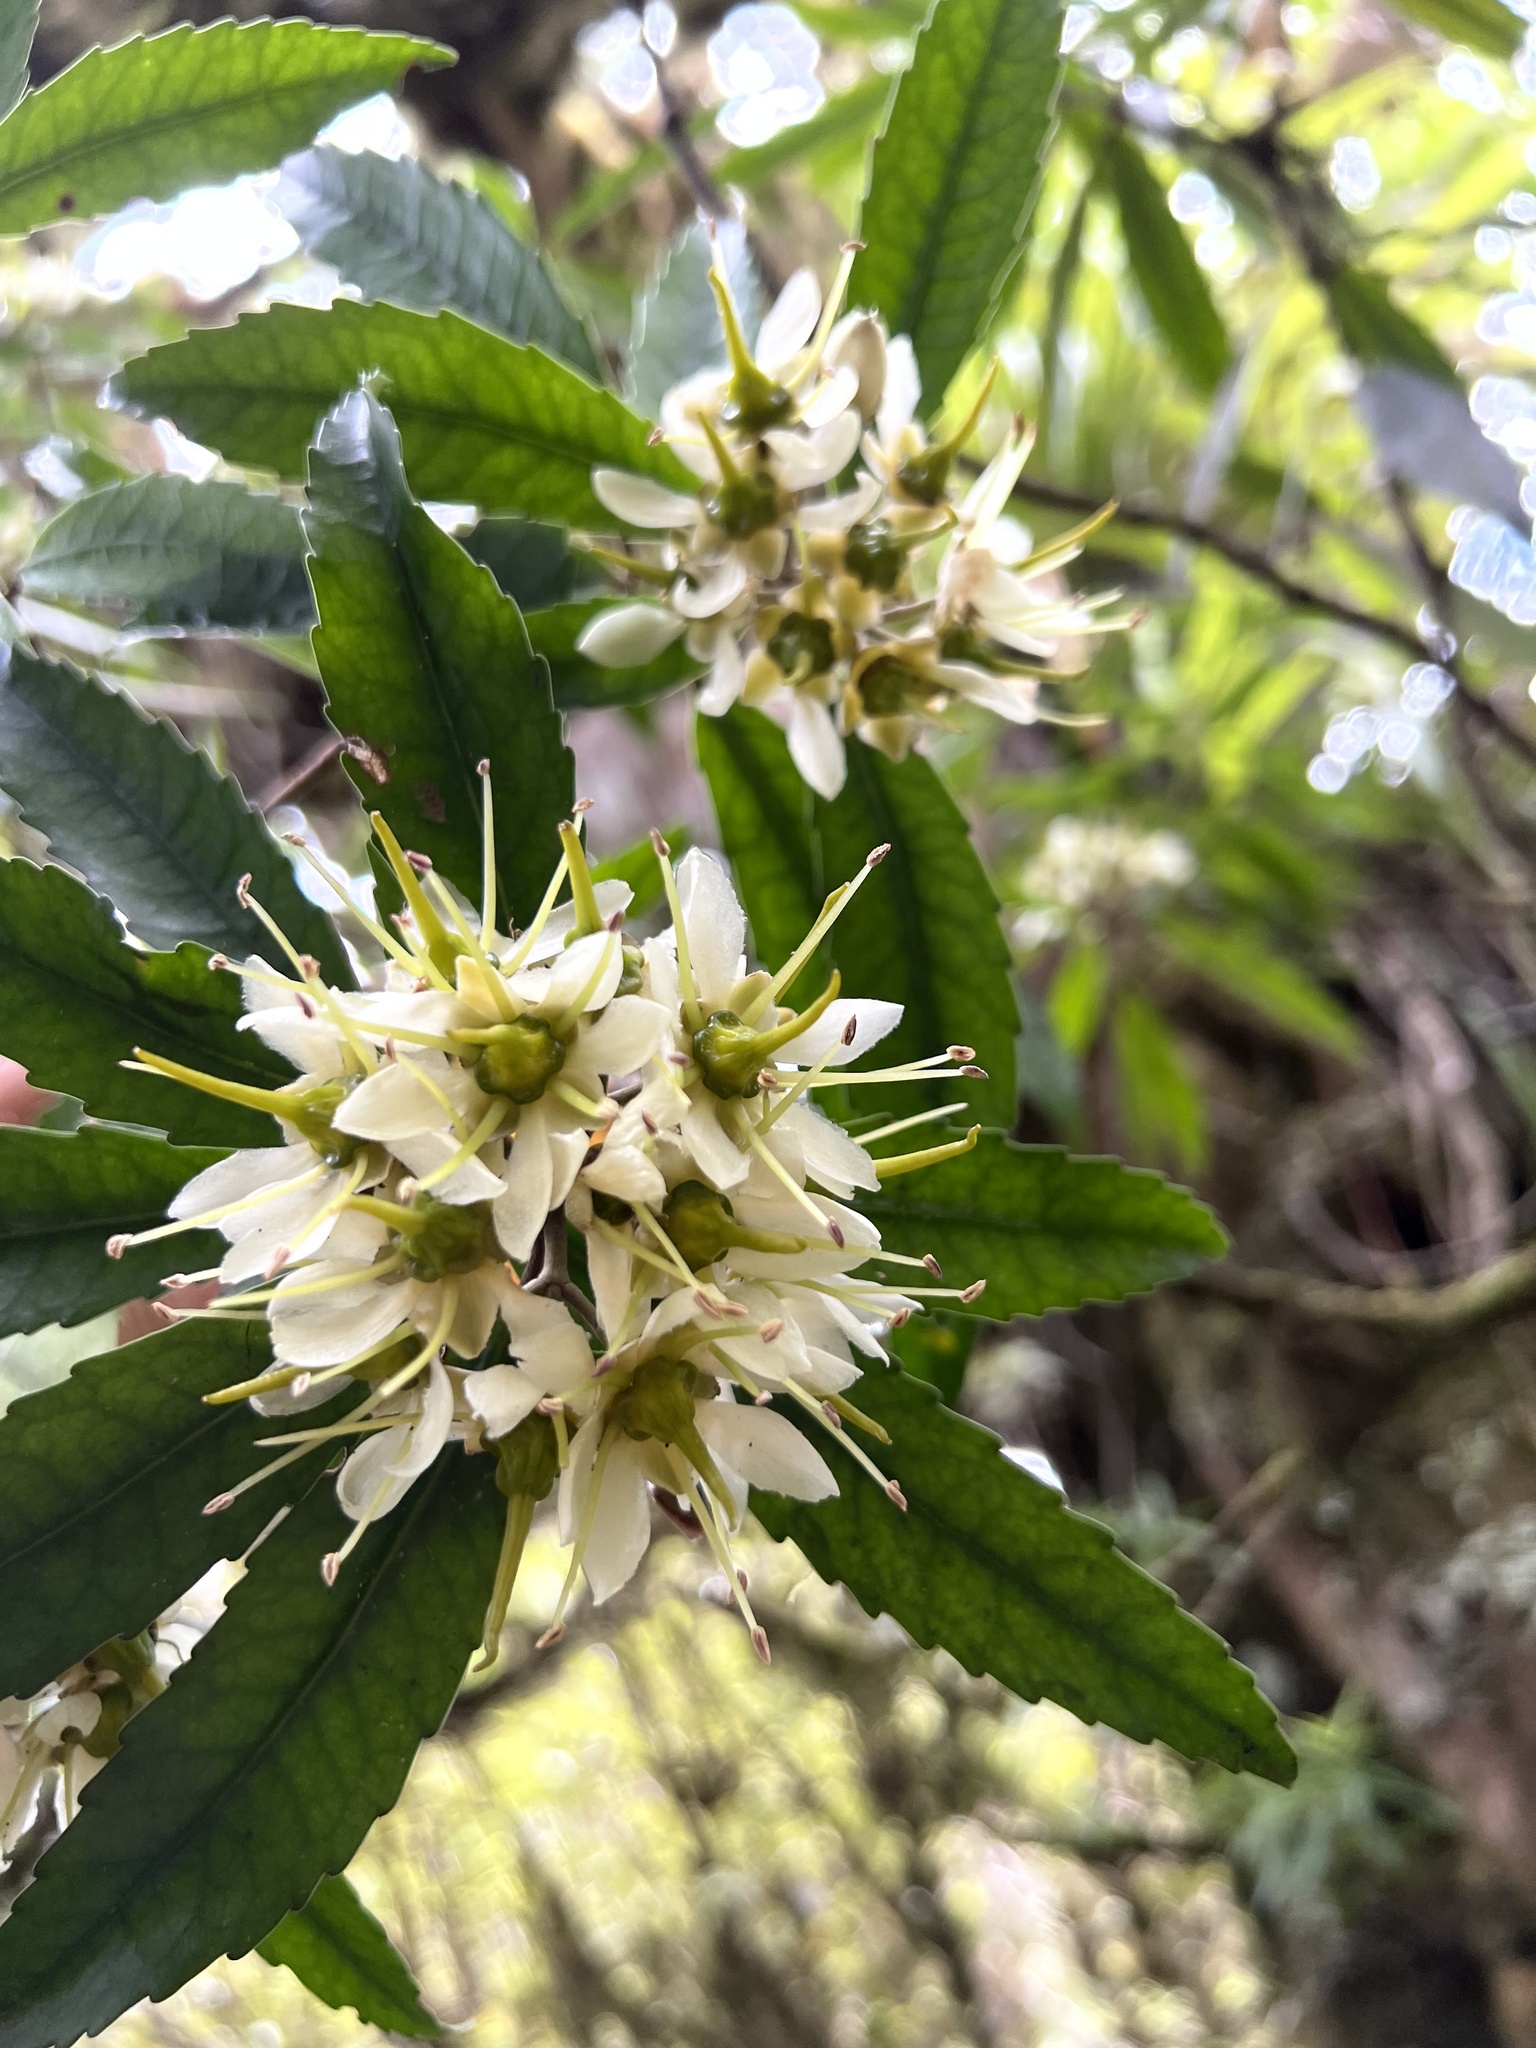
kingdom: Plantae
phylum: Tracheophyta
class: Magnoliopsida
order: Crossosomatales
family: Ixerbaceae
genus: Ixerba
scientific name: Ixerba brexioides
